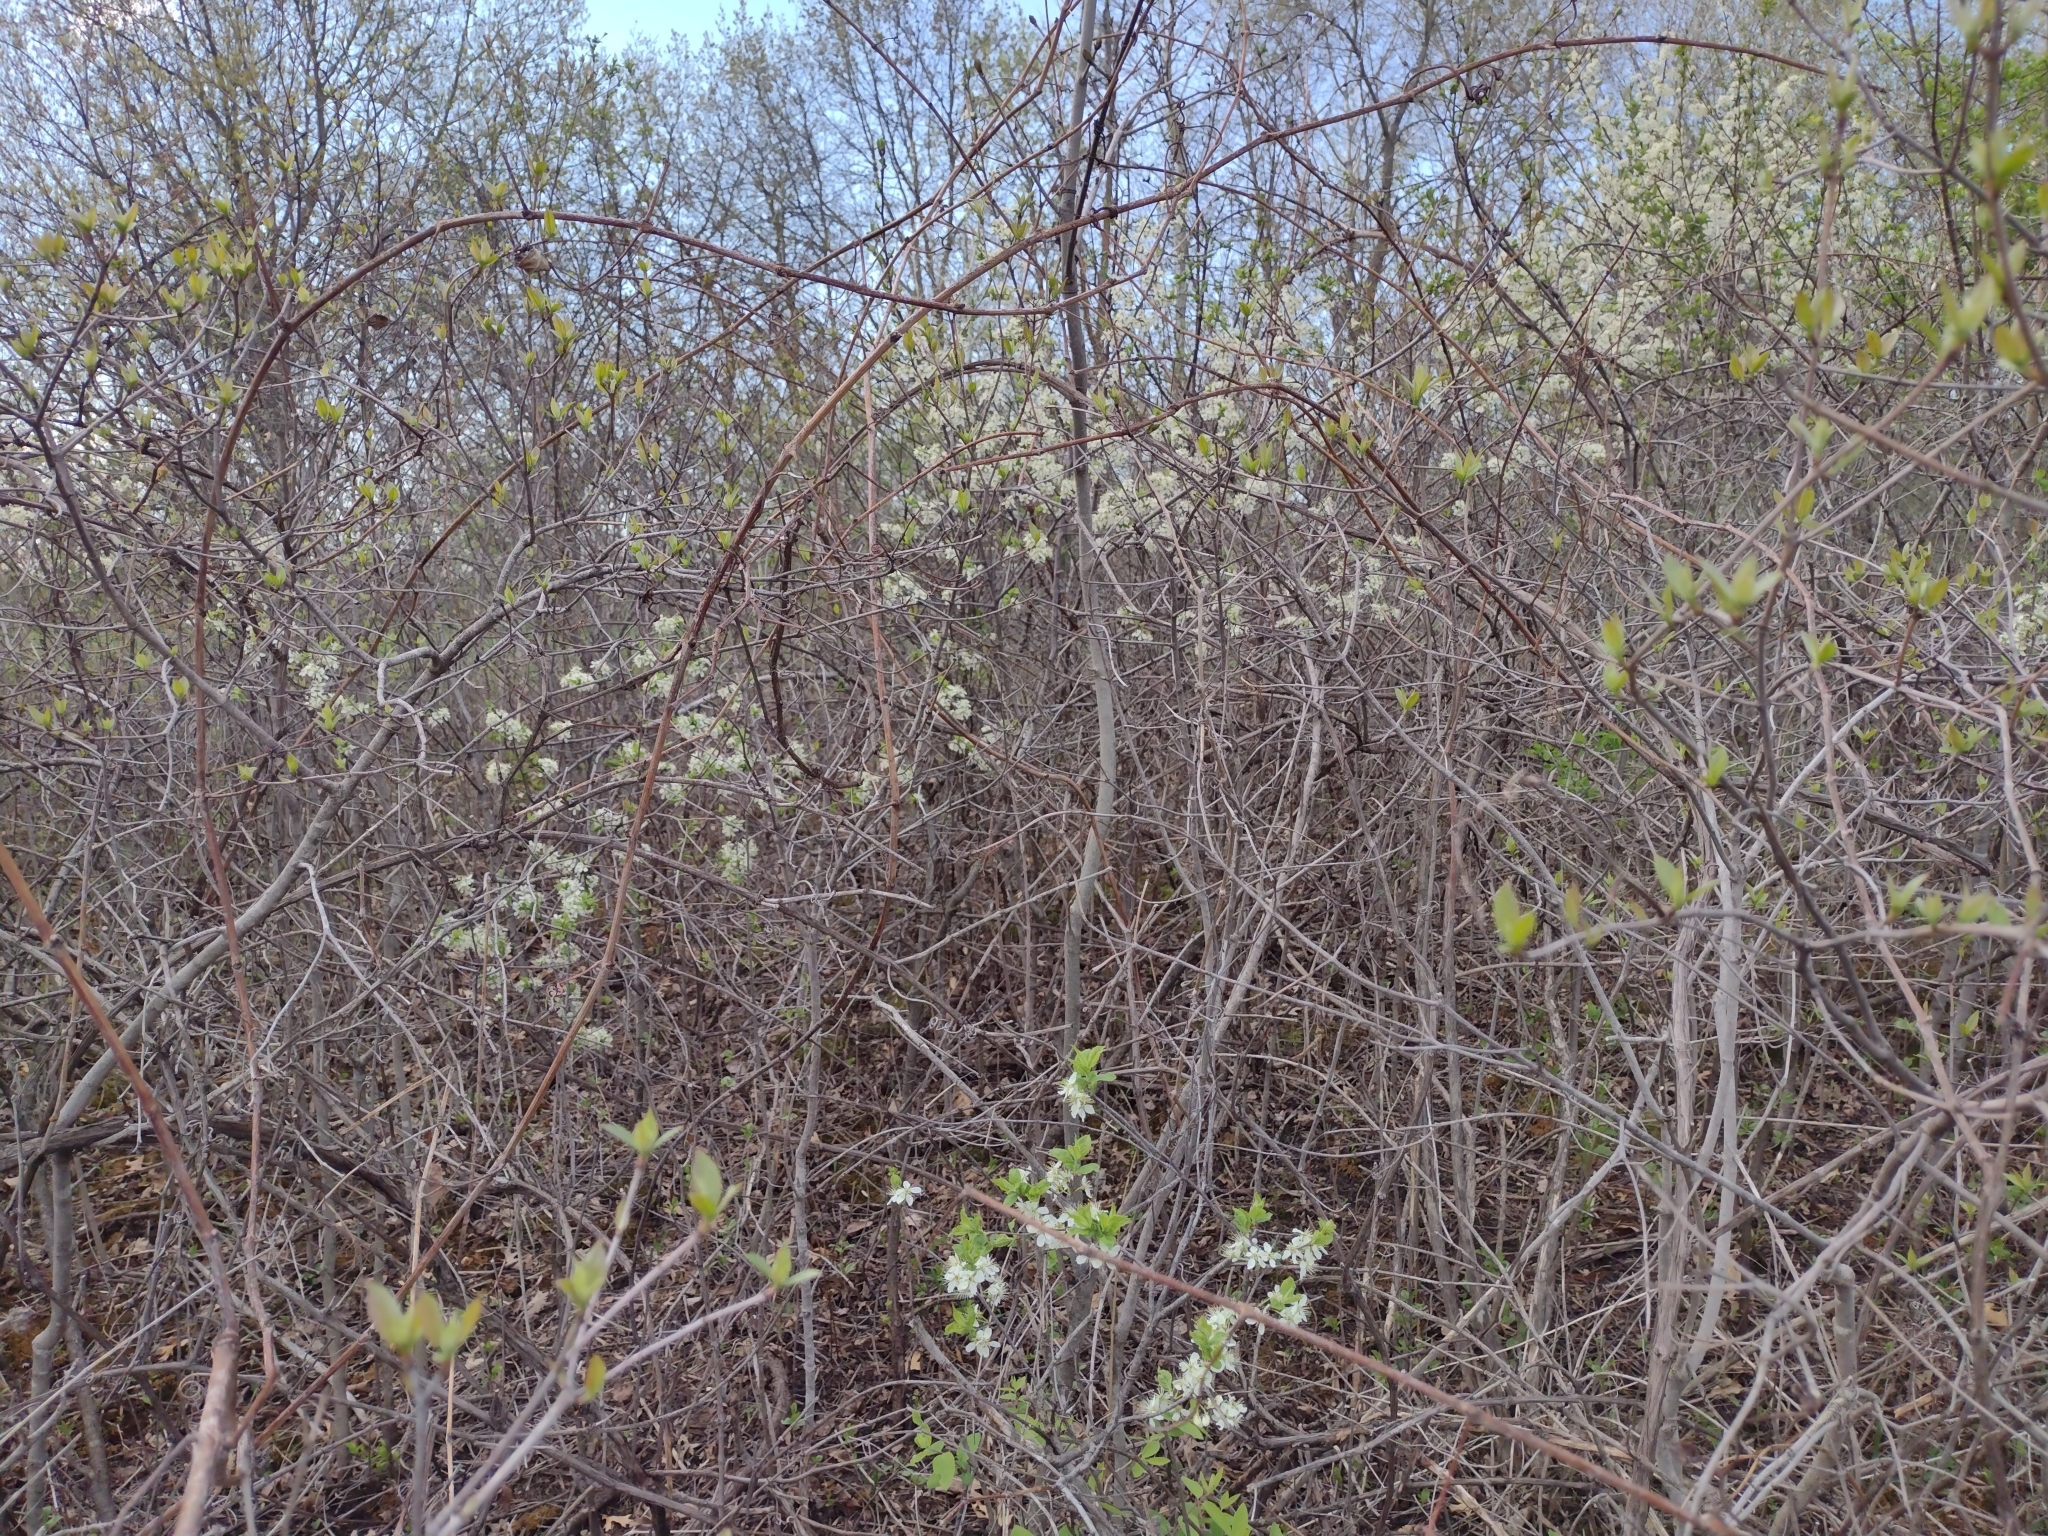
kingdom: Plantae
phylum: Tracheophyta
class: Magnoliopsida
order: Rosales
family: Rosaceae
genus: Prunus
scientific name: Prunus americana
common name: American plum
